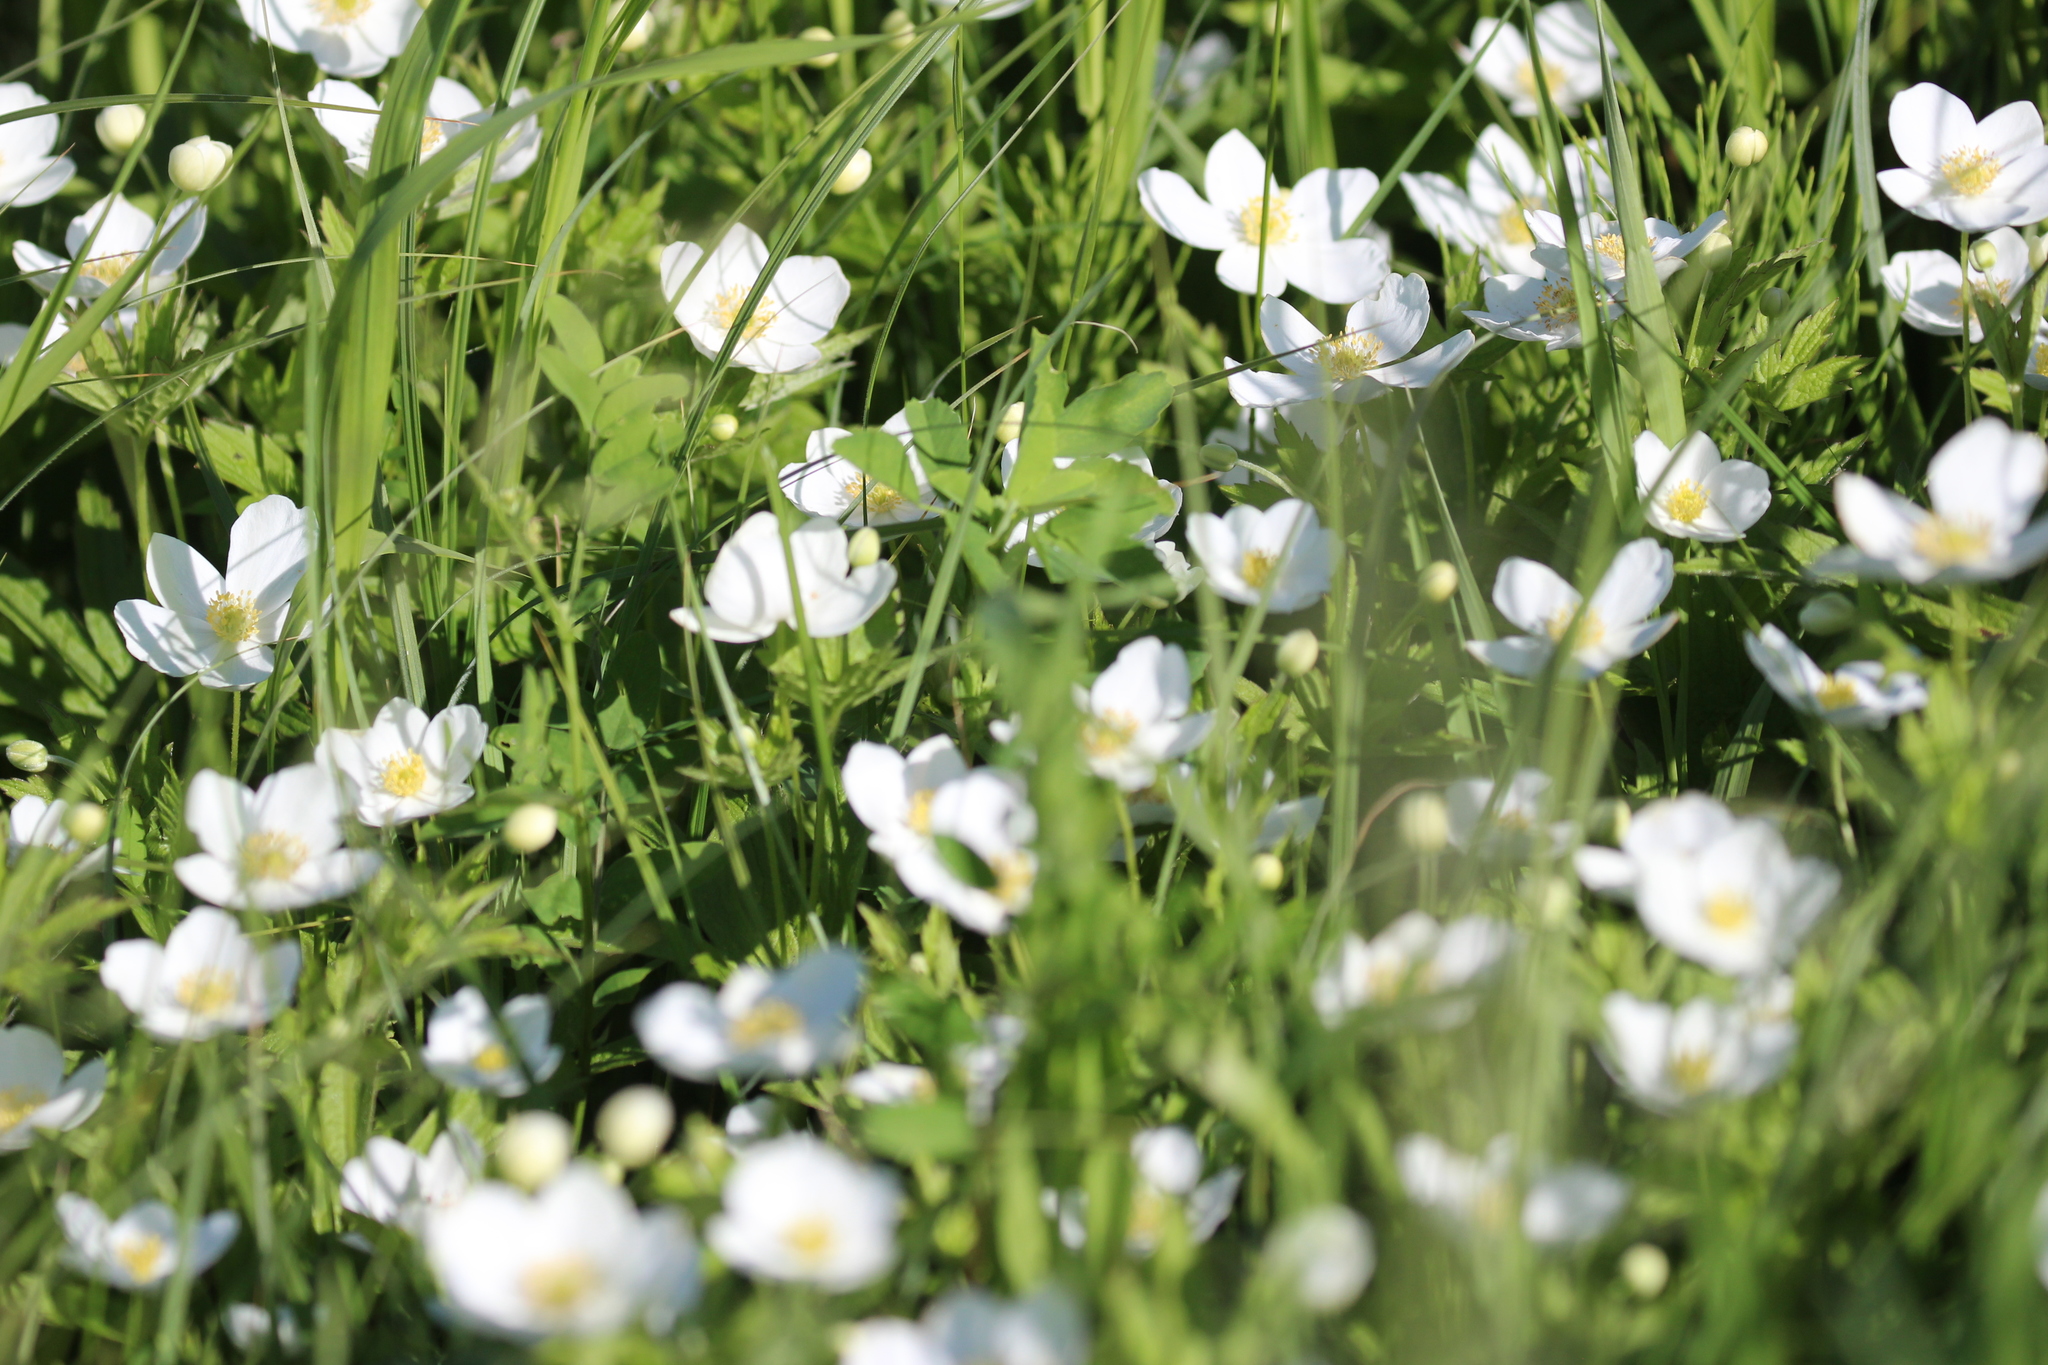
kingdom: Plantae
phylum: Tracheophyta
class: Magnoliopsida
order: Ranunculales
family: Ranunculaceae
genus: Anemonastrum
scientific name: Anemonastrum canadense
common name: Canada anemone
